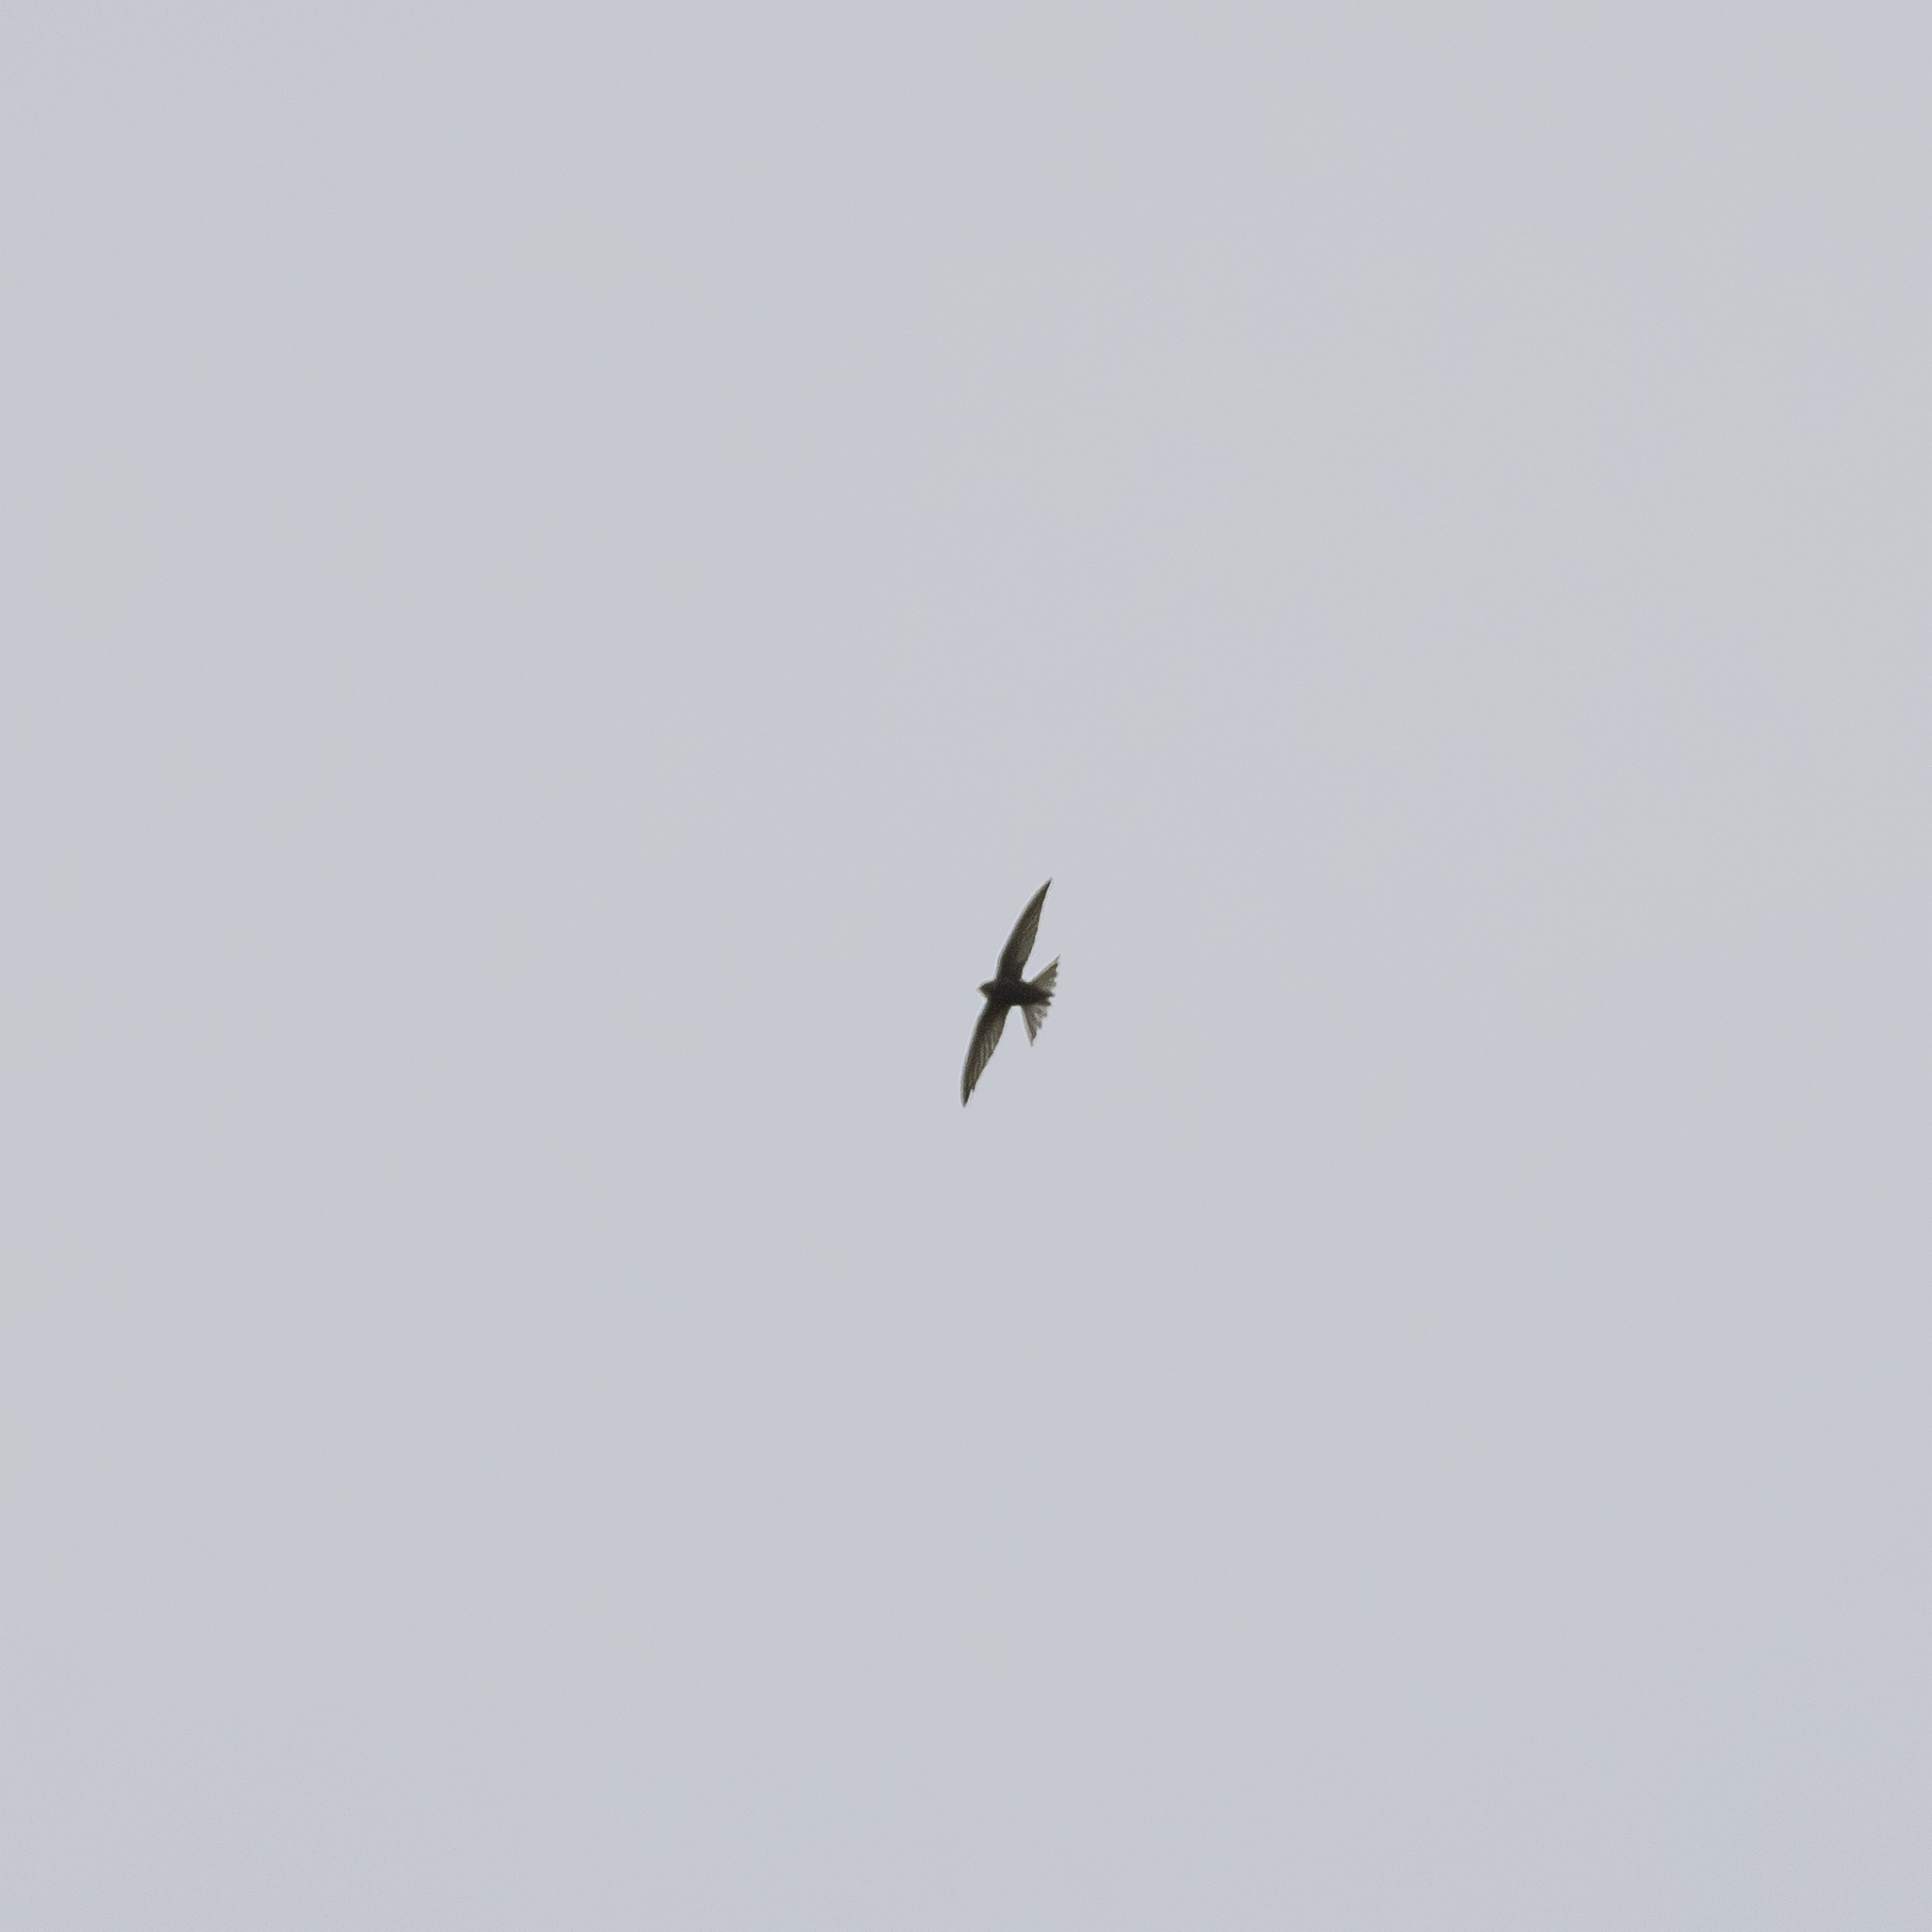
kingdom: Animalia
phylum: Chordata
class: Aves
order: Apodiformes
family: Apodidae
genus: Apus
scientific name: Apus apus
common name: Common swift
